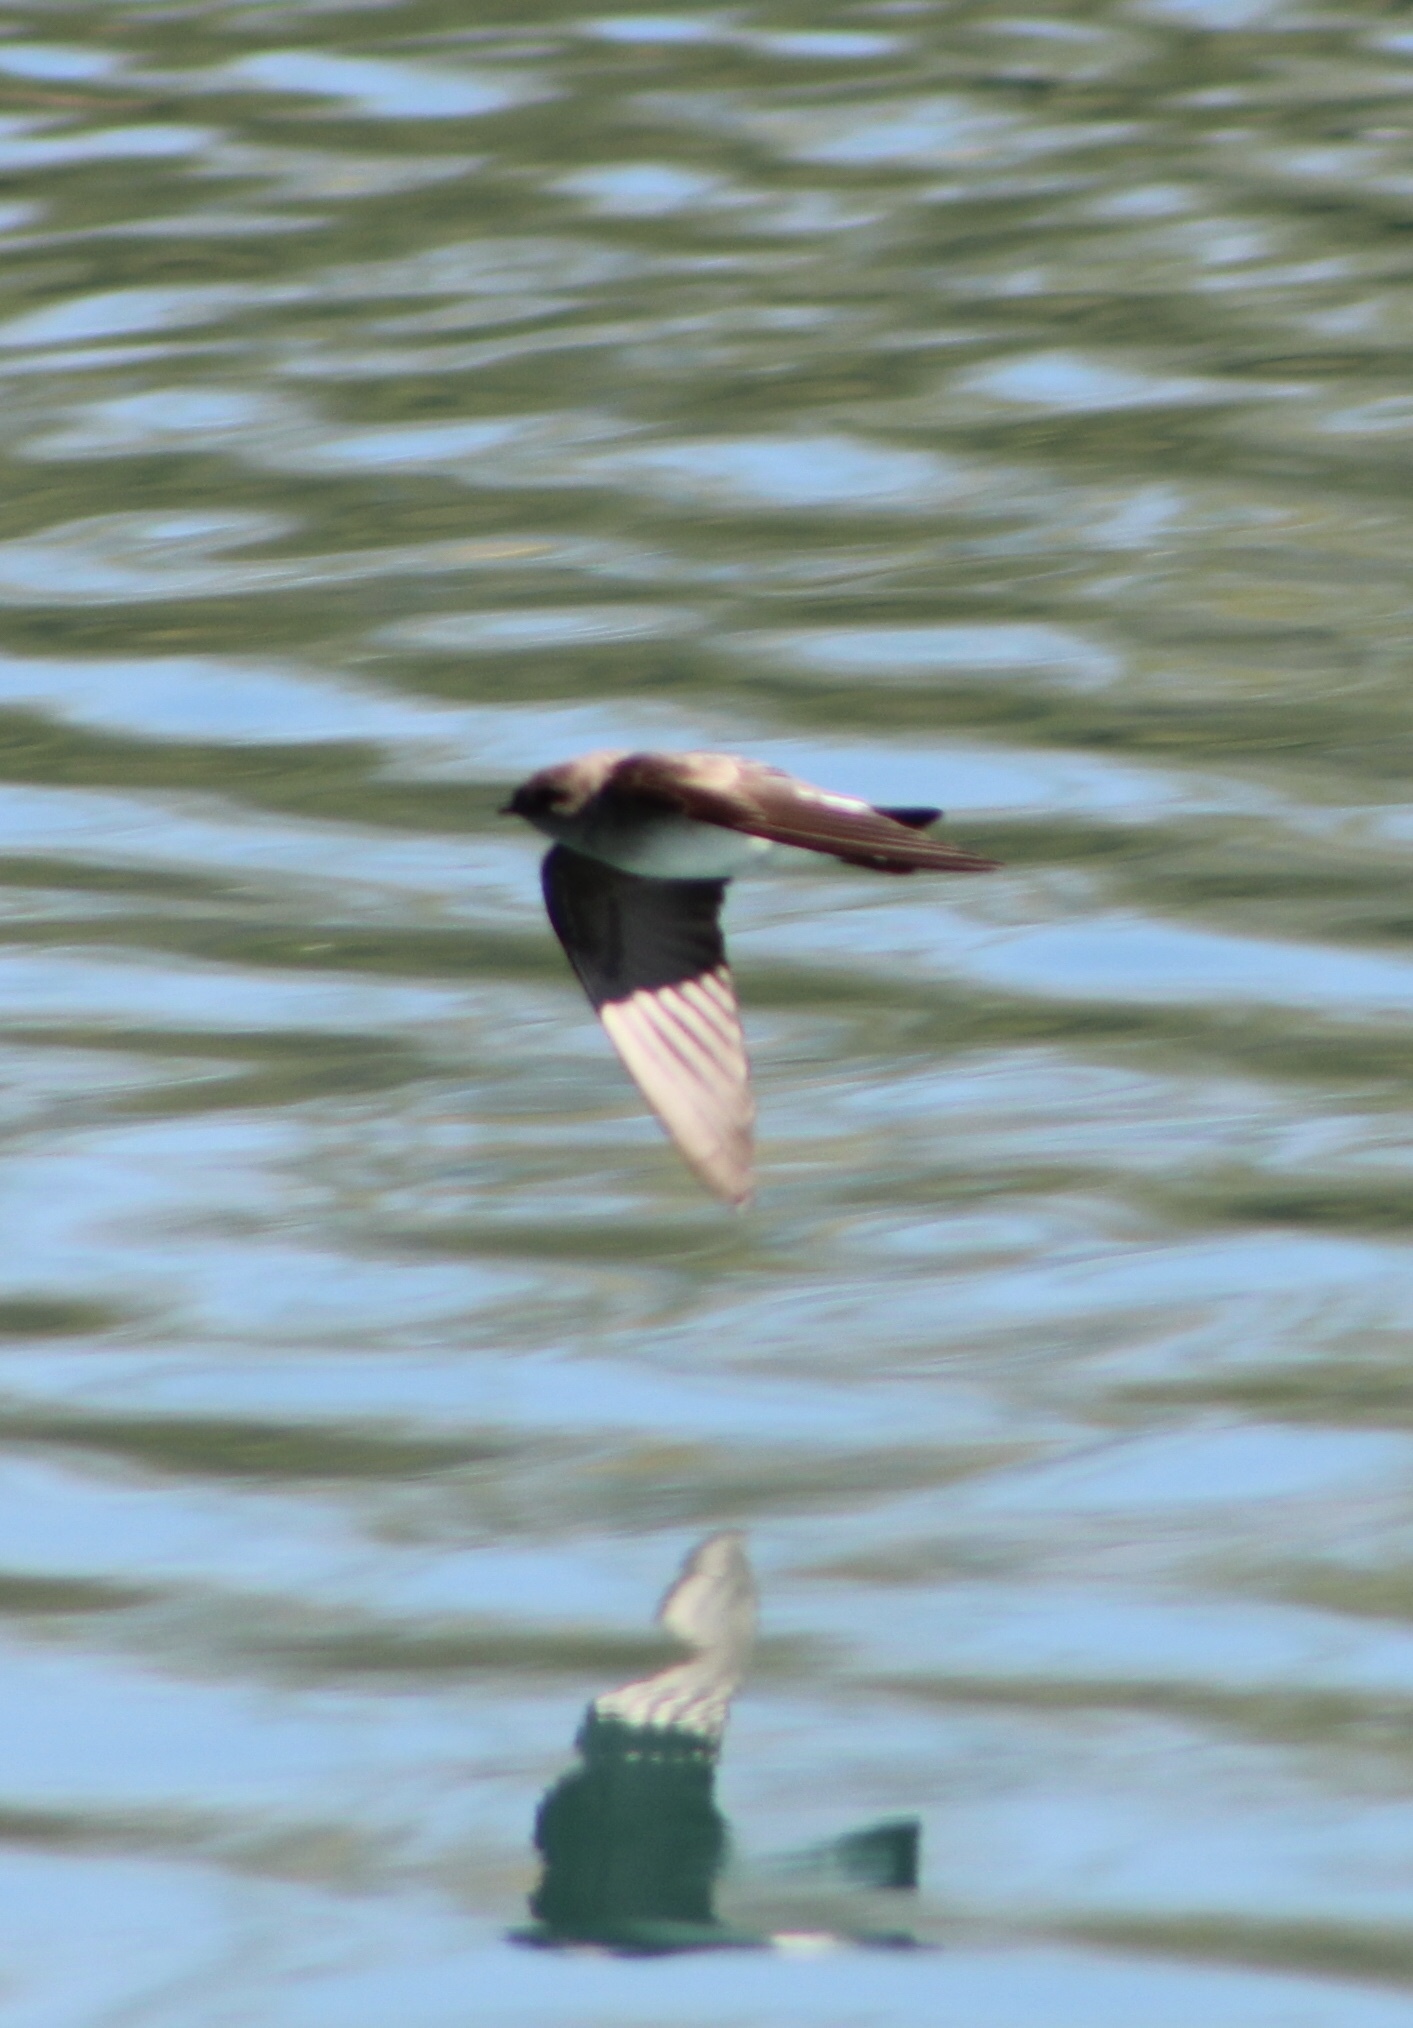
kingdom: Animalia
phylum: Chordata
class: Aves
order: Passeriformes
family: Hirundinidae
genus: Stelgidopteryx
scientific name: Stelgidopteryx serripennis
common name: Northern rough-winged swallow
